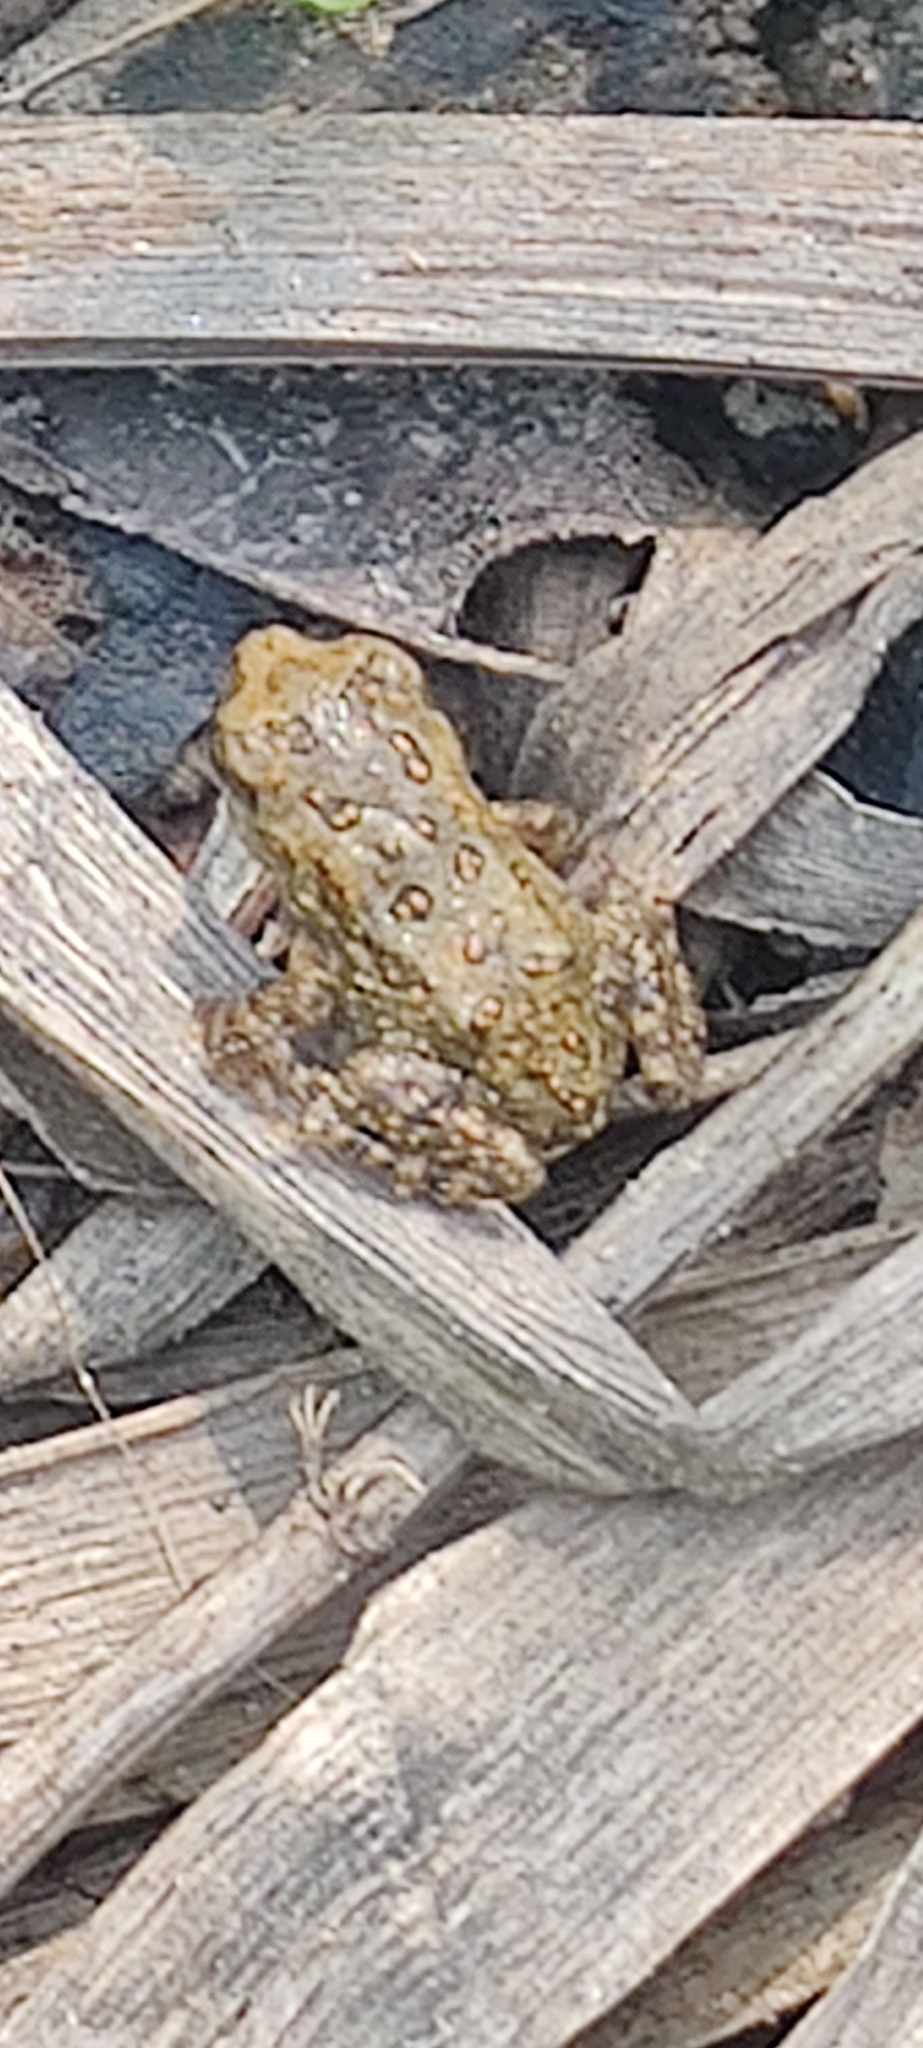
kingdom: Animalia
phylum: Chordata
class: Amphibia
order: Anura
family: Bufonidae
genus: Anaxyrus
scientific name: Anaxyrus americanus
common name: American toad
